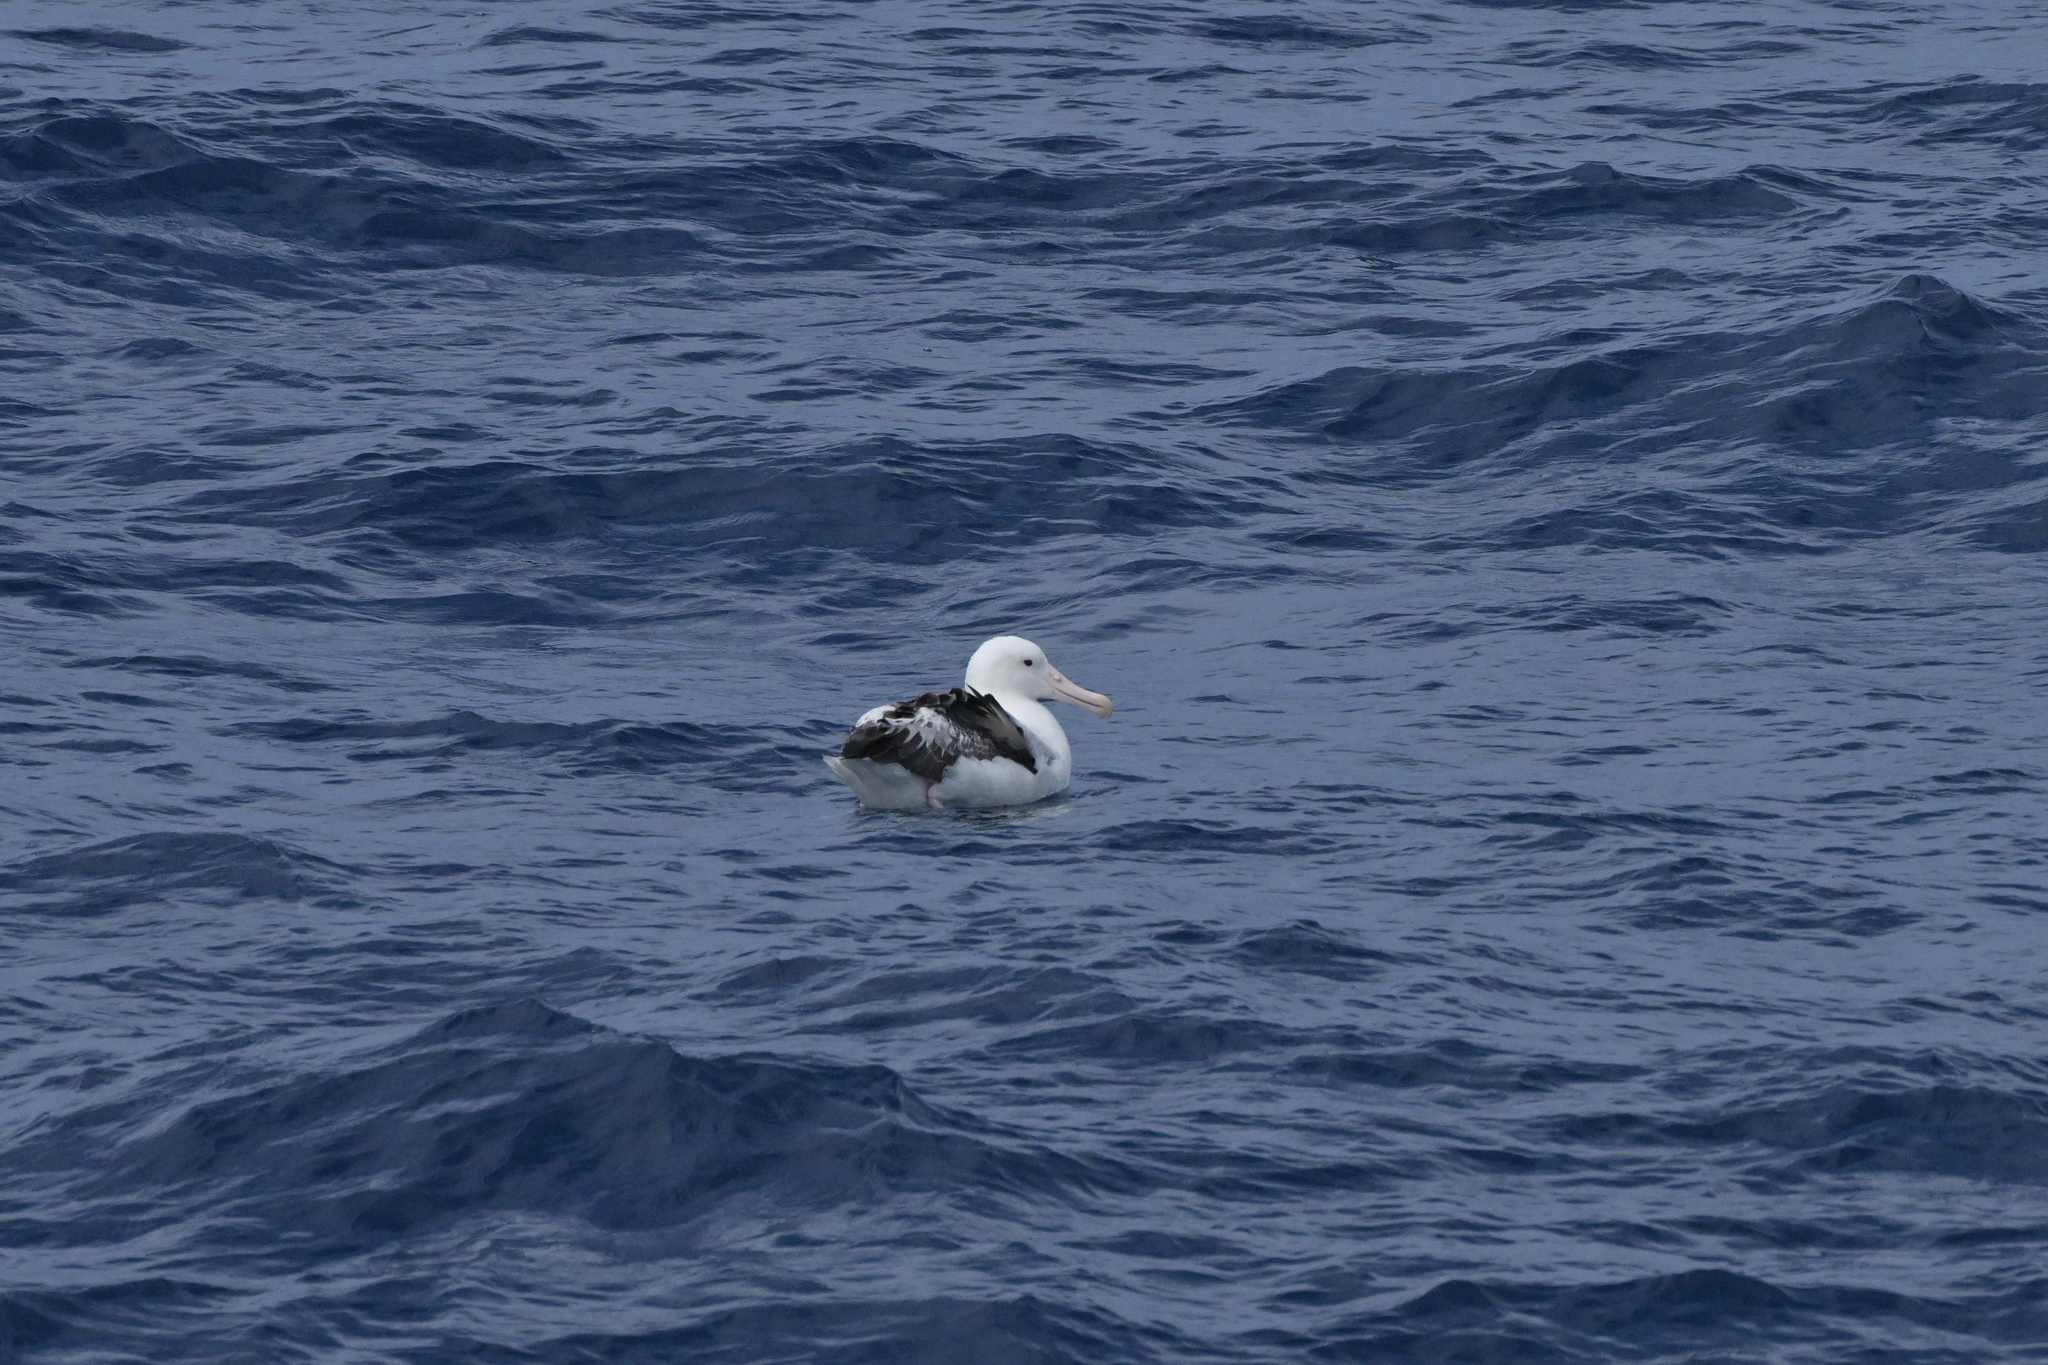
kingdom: Animalia
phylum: Chordata
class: Aves
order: Procellariiformes
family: Diomedeidae
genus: Diomedea
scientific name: Diomedea epomophora
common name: Southern royal albatross
